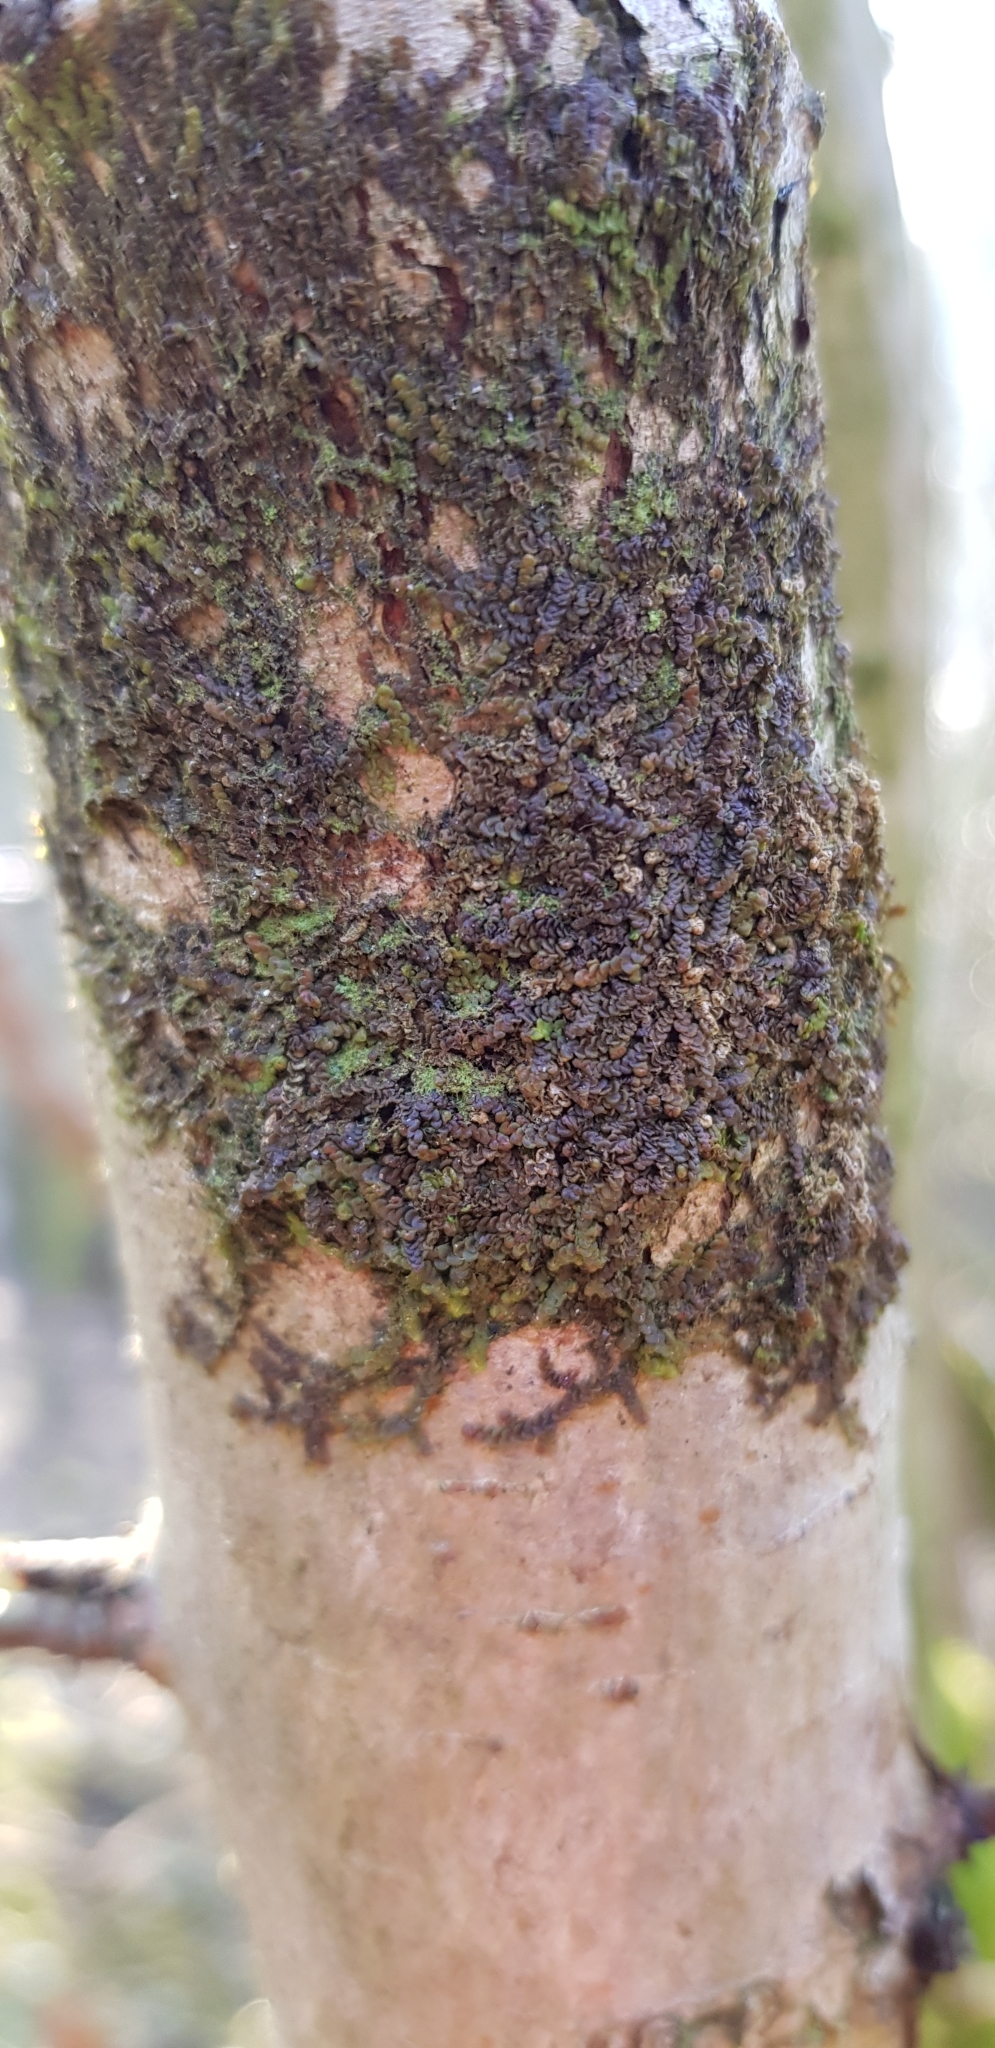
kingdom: Plantae
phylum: Marchantiophyta
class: Jungermanniopsida
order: Porellales
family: Frullaniaceae
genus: Frullania
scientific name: Frullania dilatata
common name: Dilated scalewort
